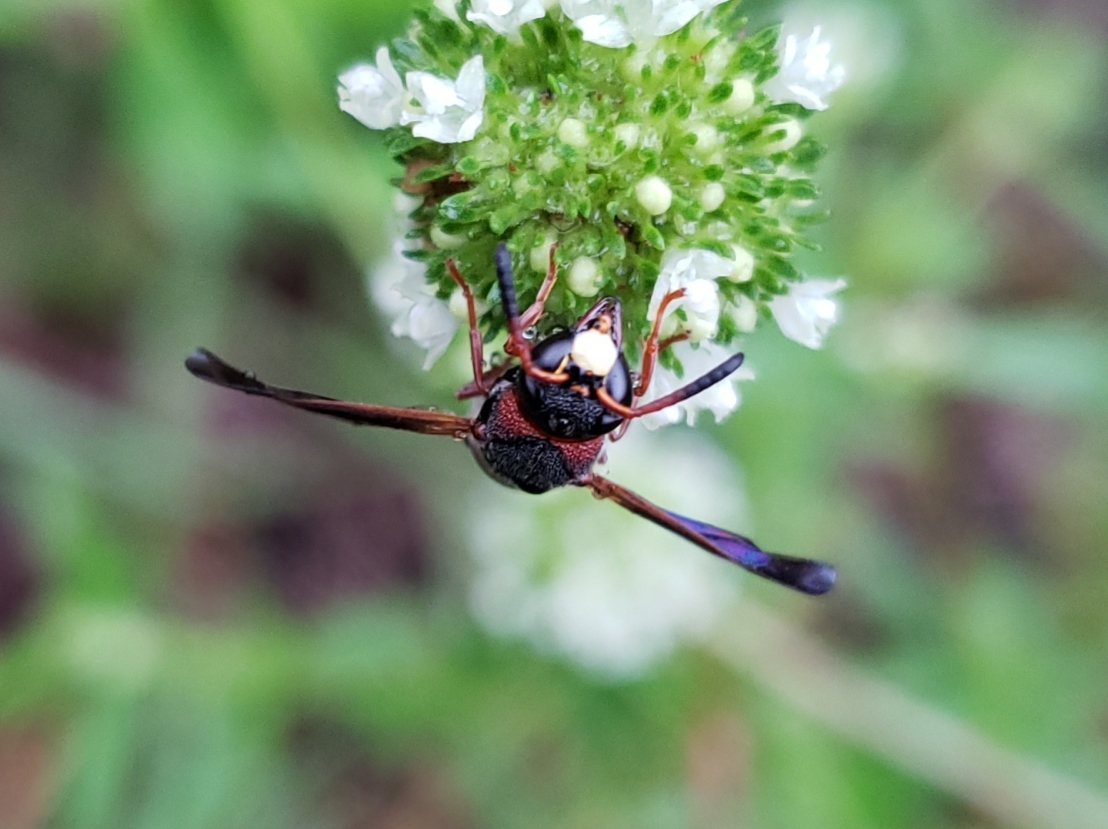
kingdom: Animalia
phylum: Arthropoda
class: Insecta
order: Hymenoptera
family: Eumenidae
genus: Pachodynerus
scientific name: Pachodynerus erynnis
